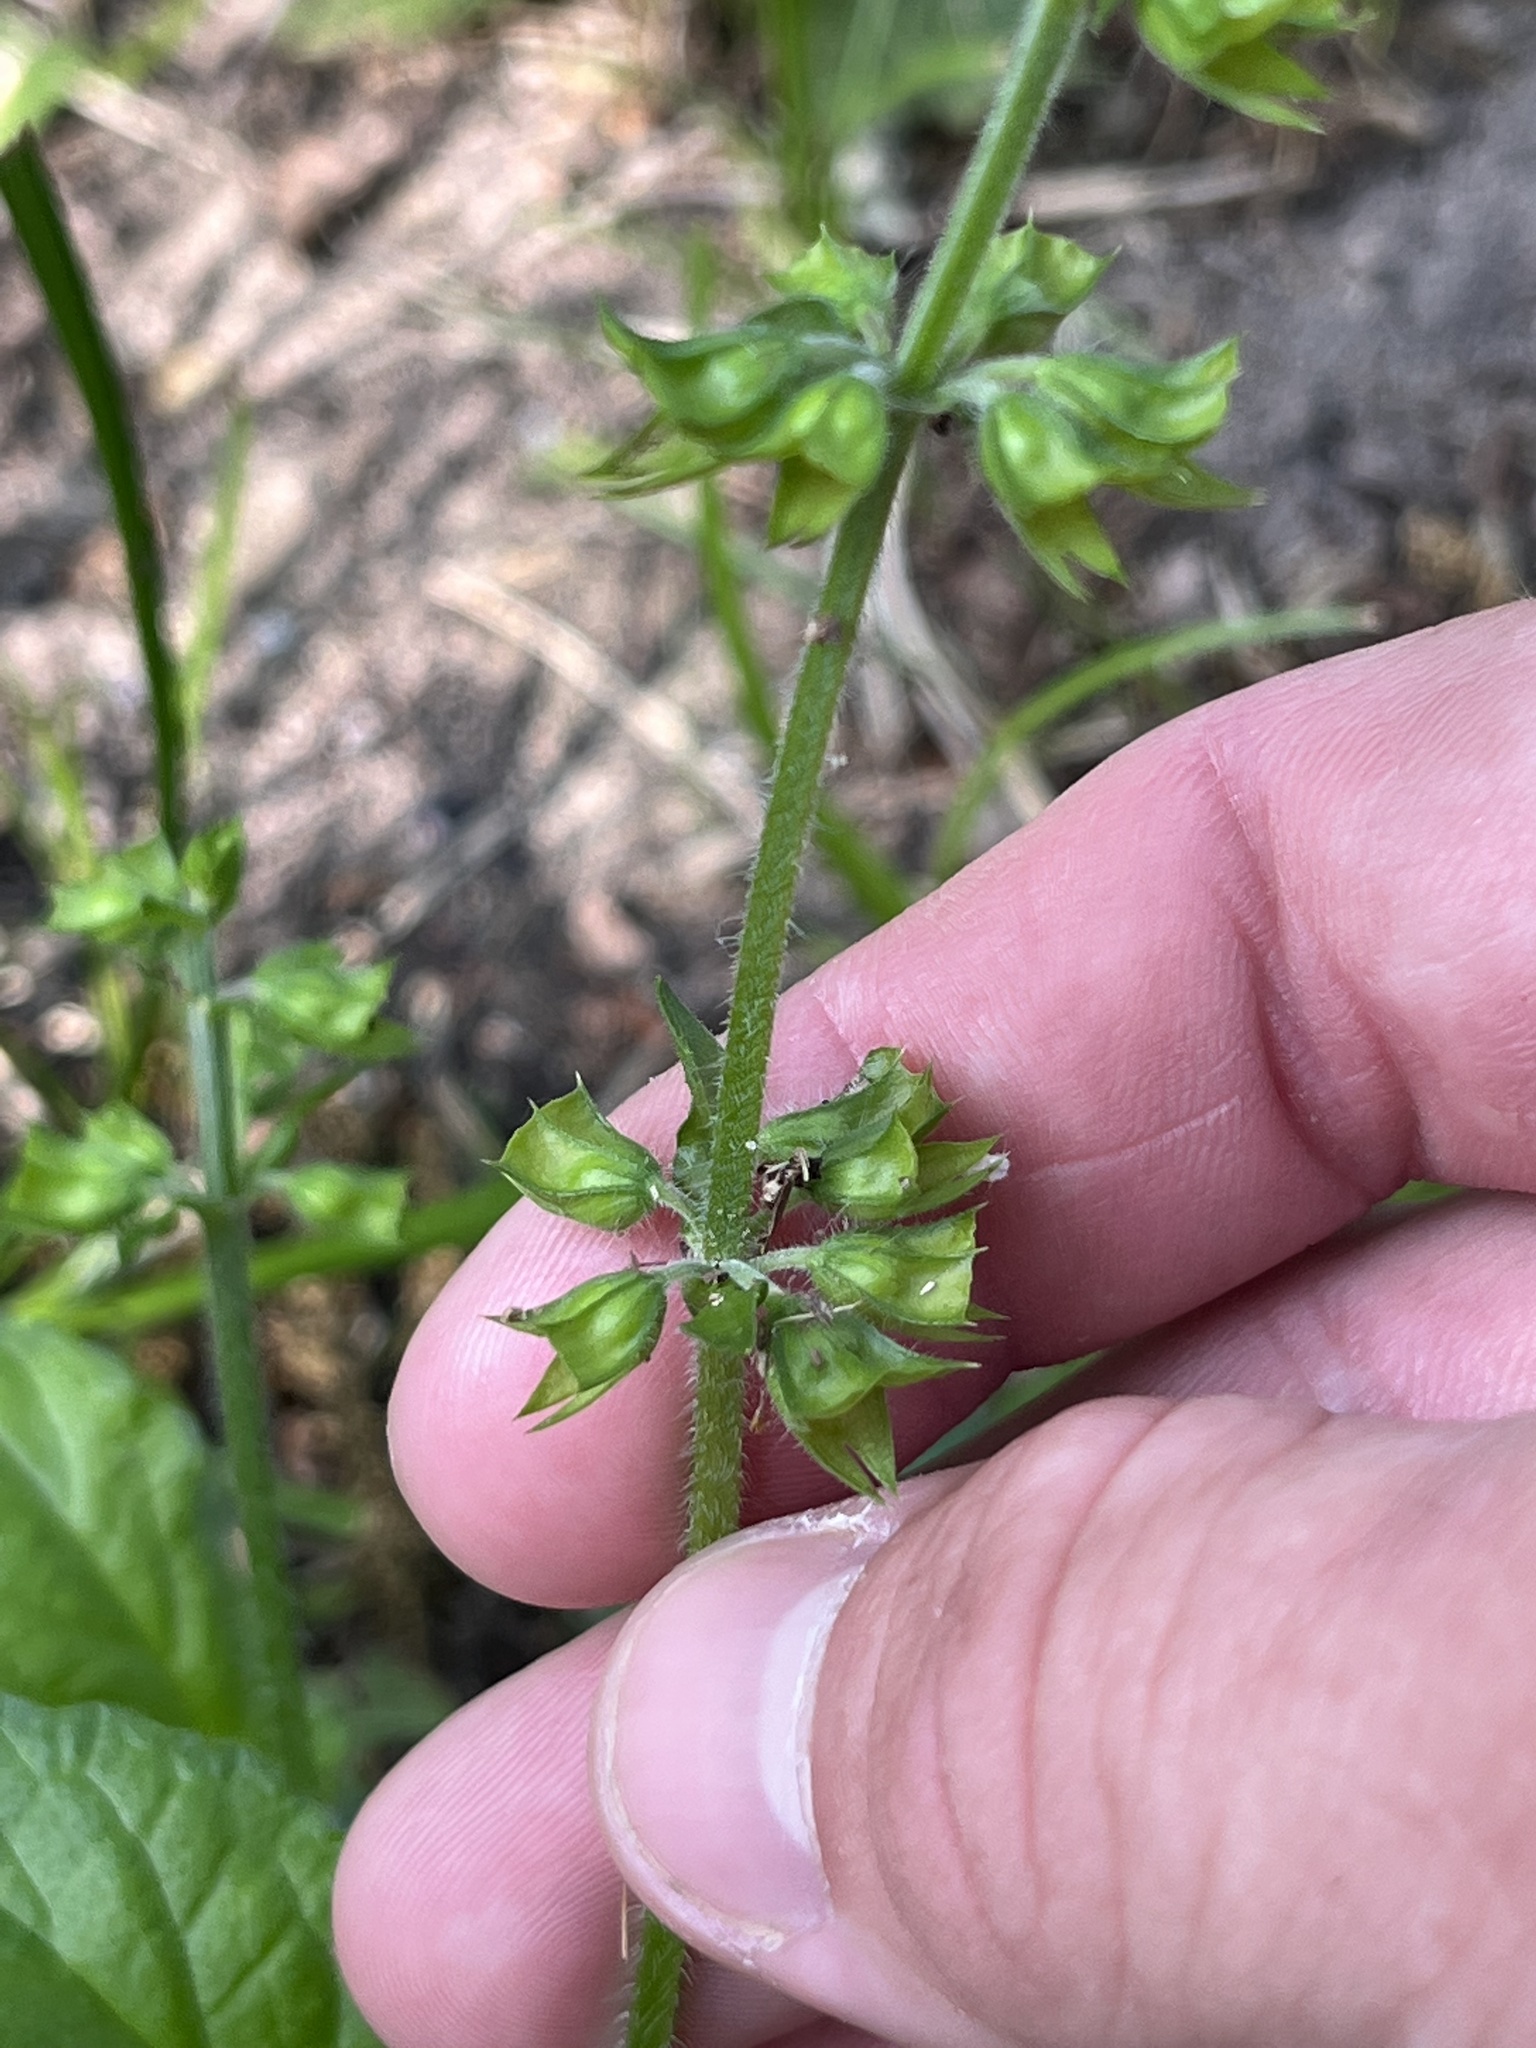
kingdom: Plantae
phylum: Tracheophyta
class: Magnoliopsida
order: Lamiales
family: Lamiaceae
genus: Salvia
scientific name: Salvia lyrata
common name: Cancerweed
